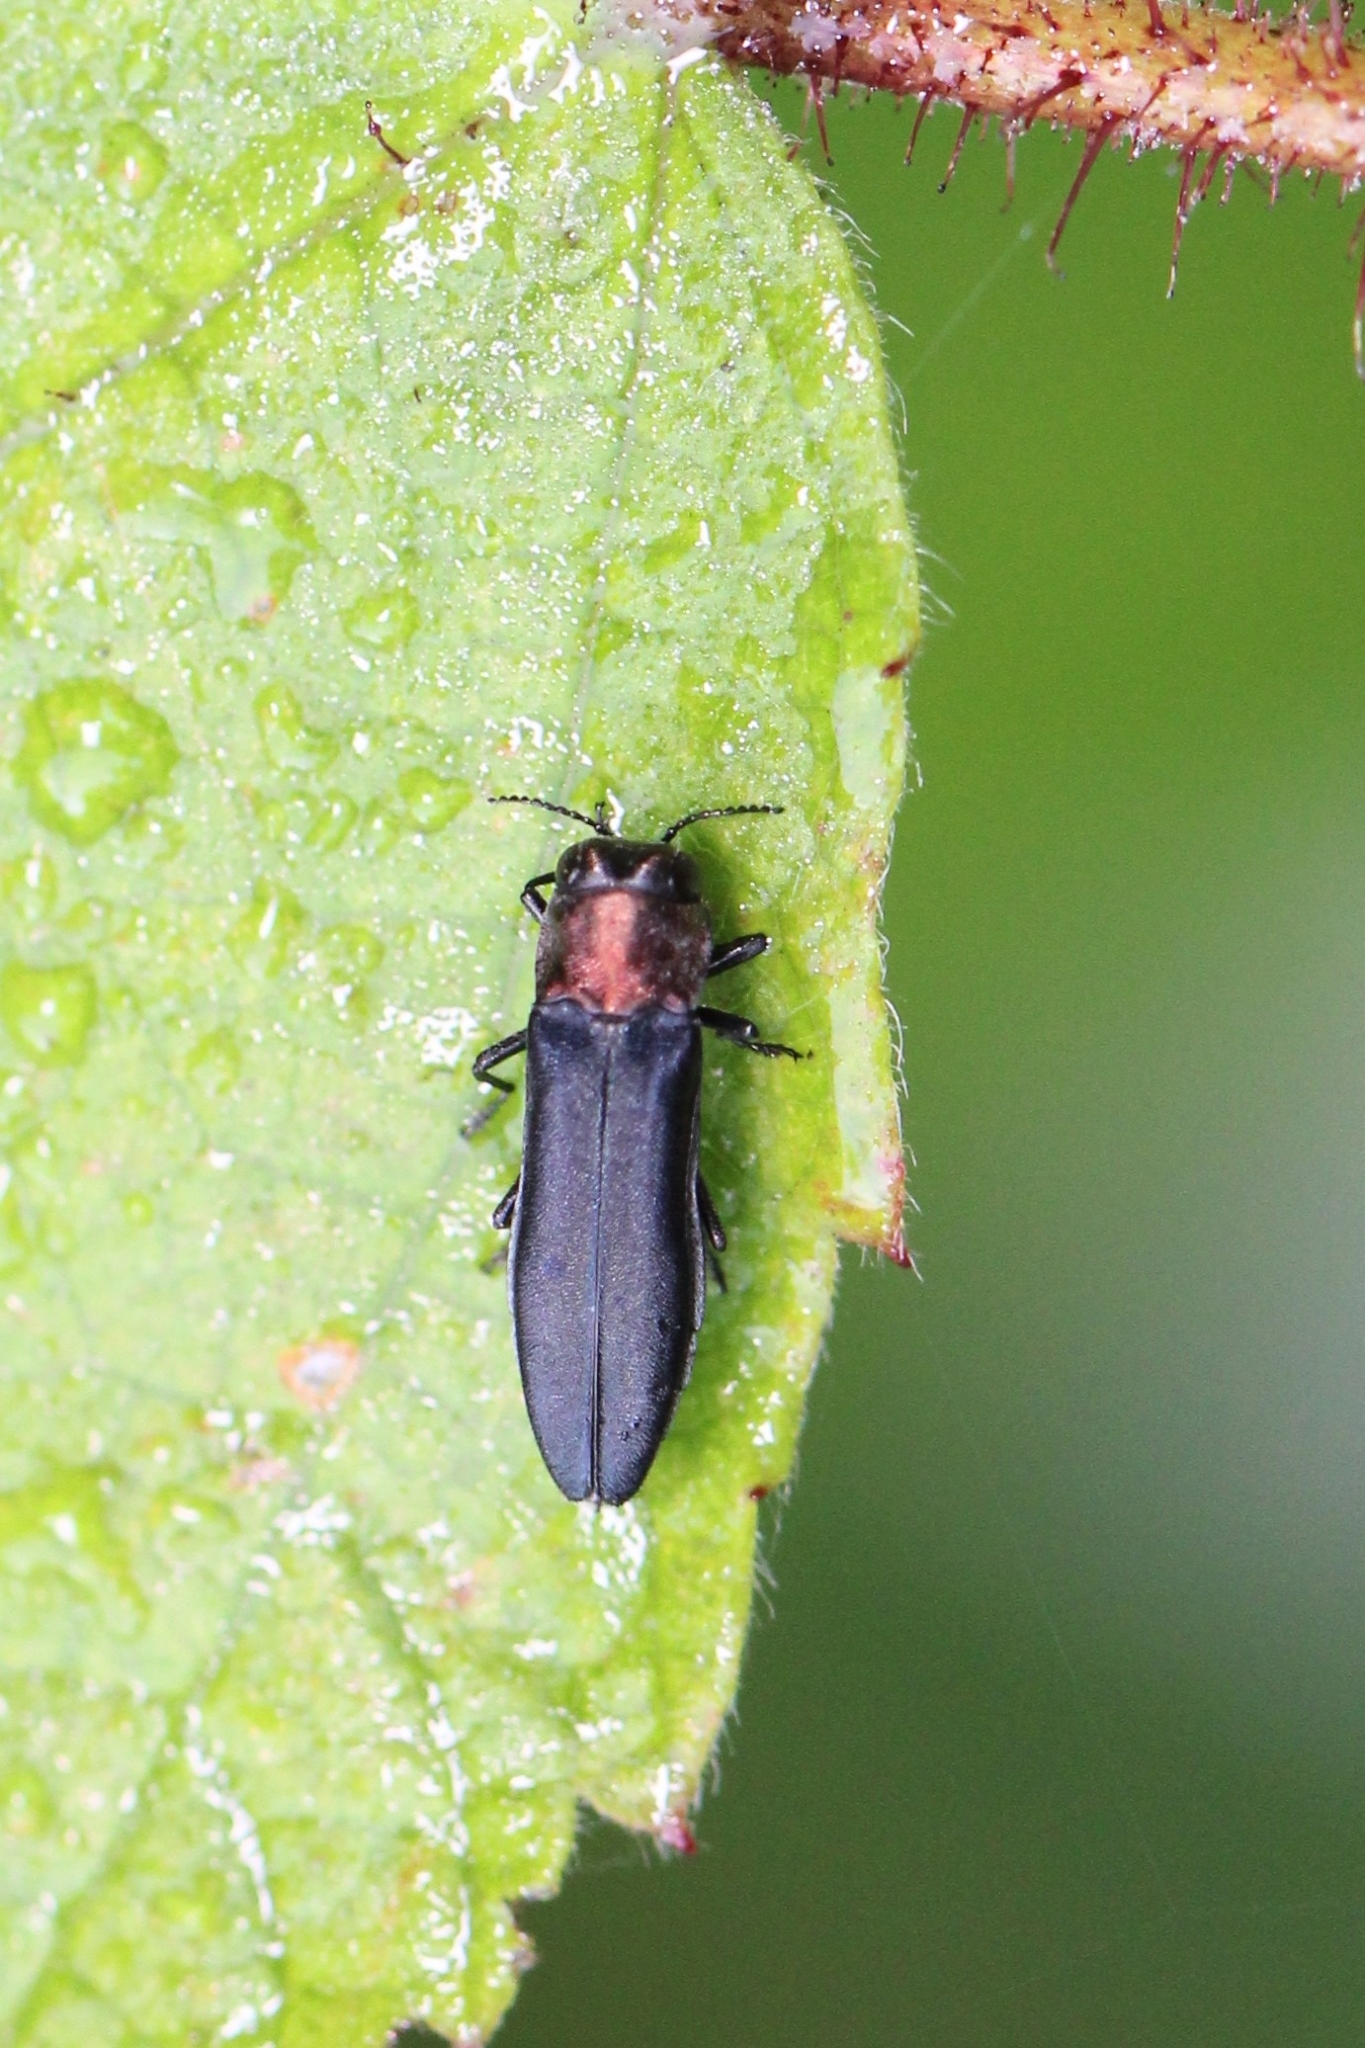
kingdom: Animalia
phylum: Arthropoda
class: Insecta
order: Coleoptera
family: Buprestidae
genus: Agrilus
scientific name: Agrilus ruficollis
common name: Red-necked cane borer beetle
